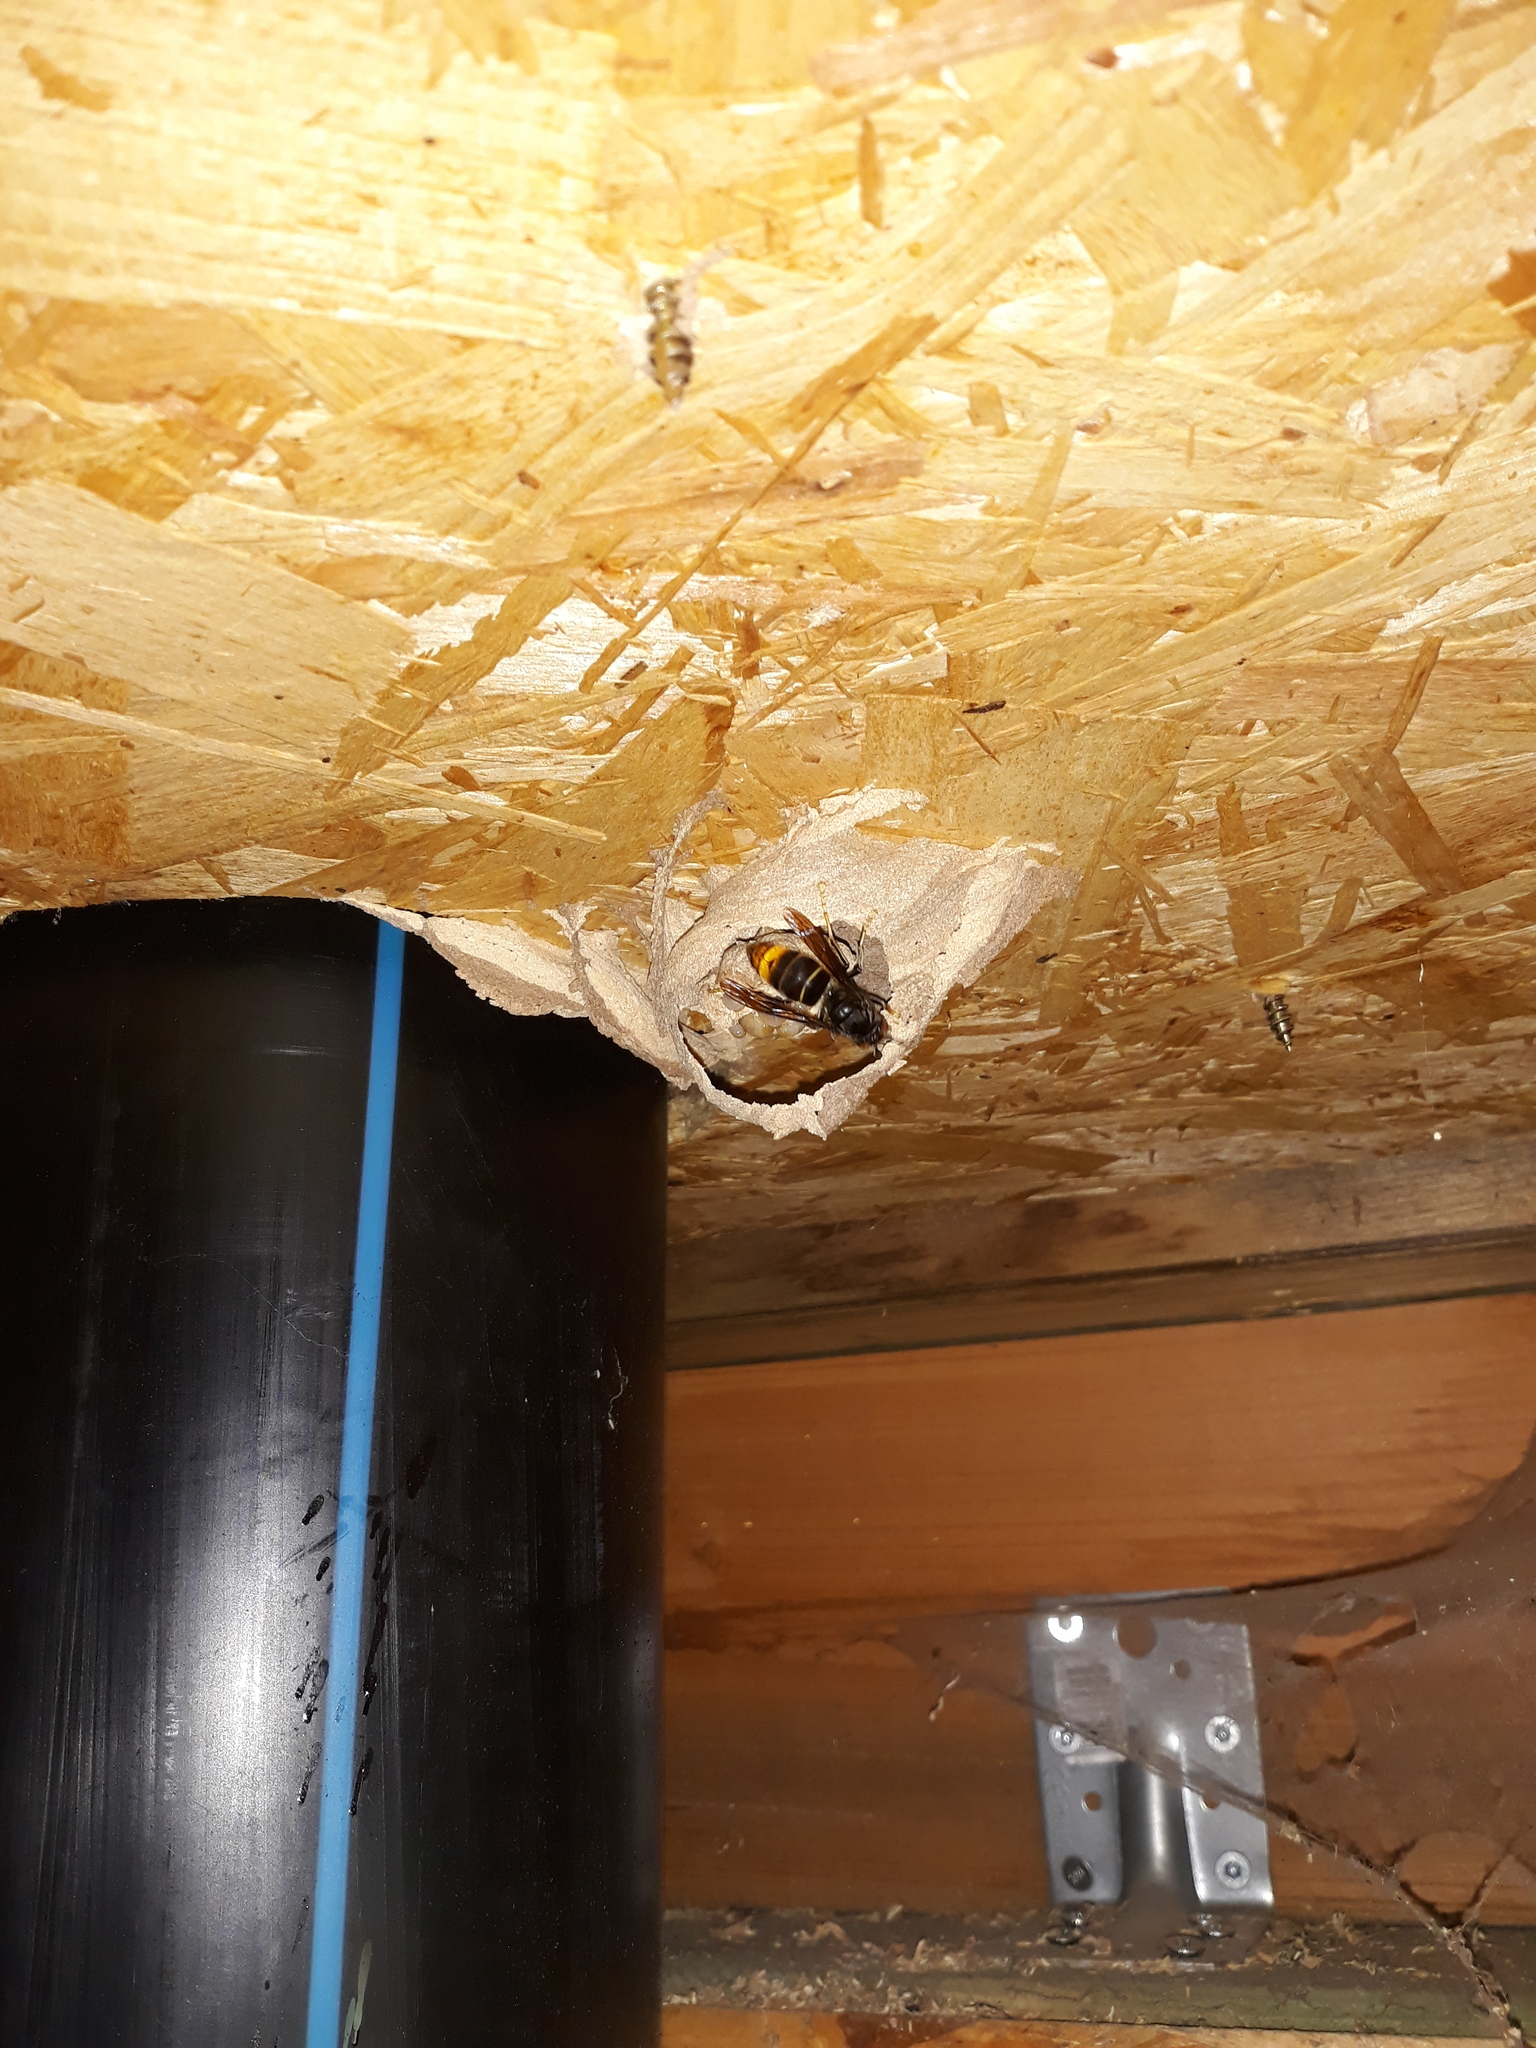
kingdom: Animalia
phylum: Arthropoda
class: Insecta
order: Hymenoptera
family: Vespidae
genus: Vespa
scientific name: Vespa velutina
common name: Asian hornet
